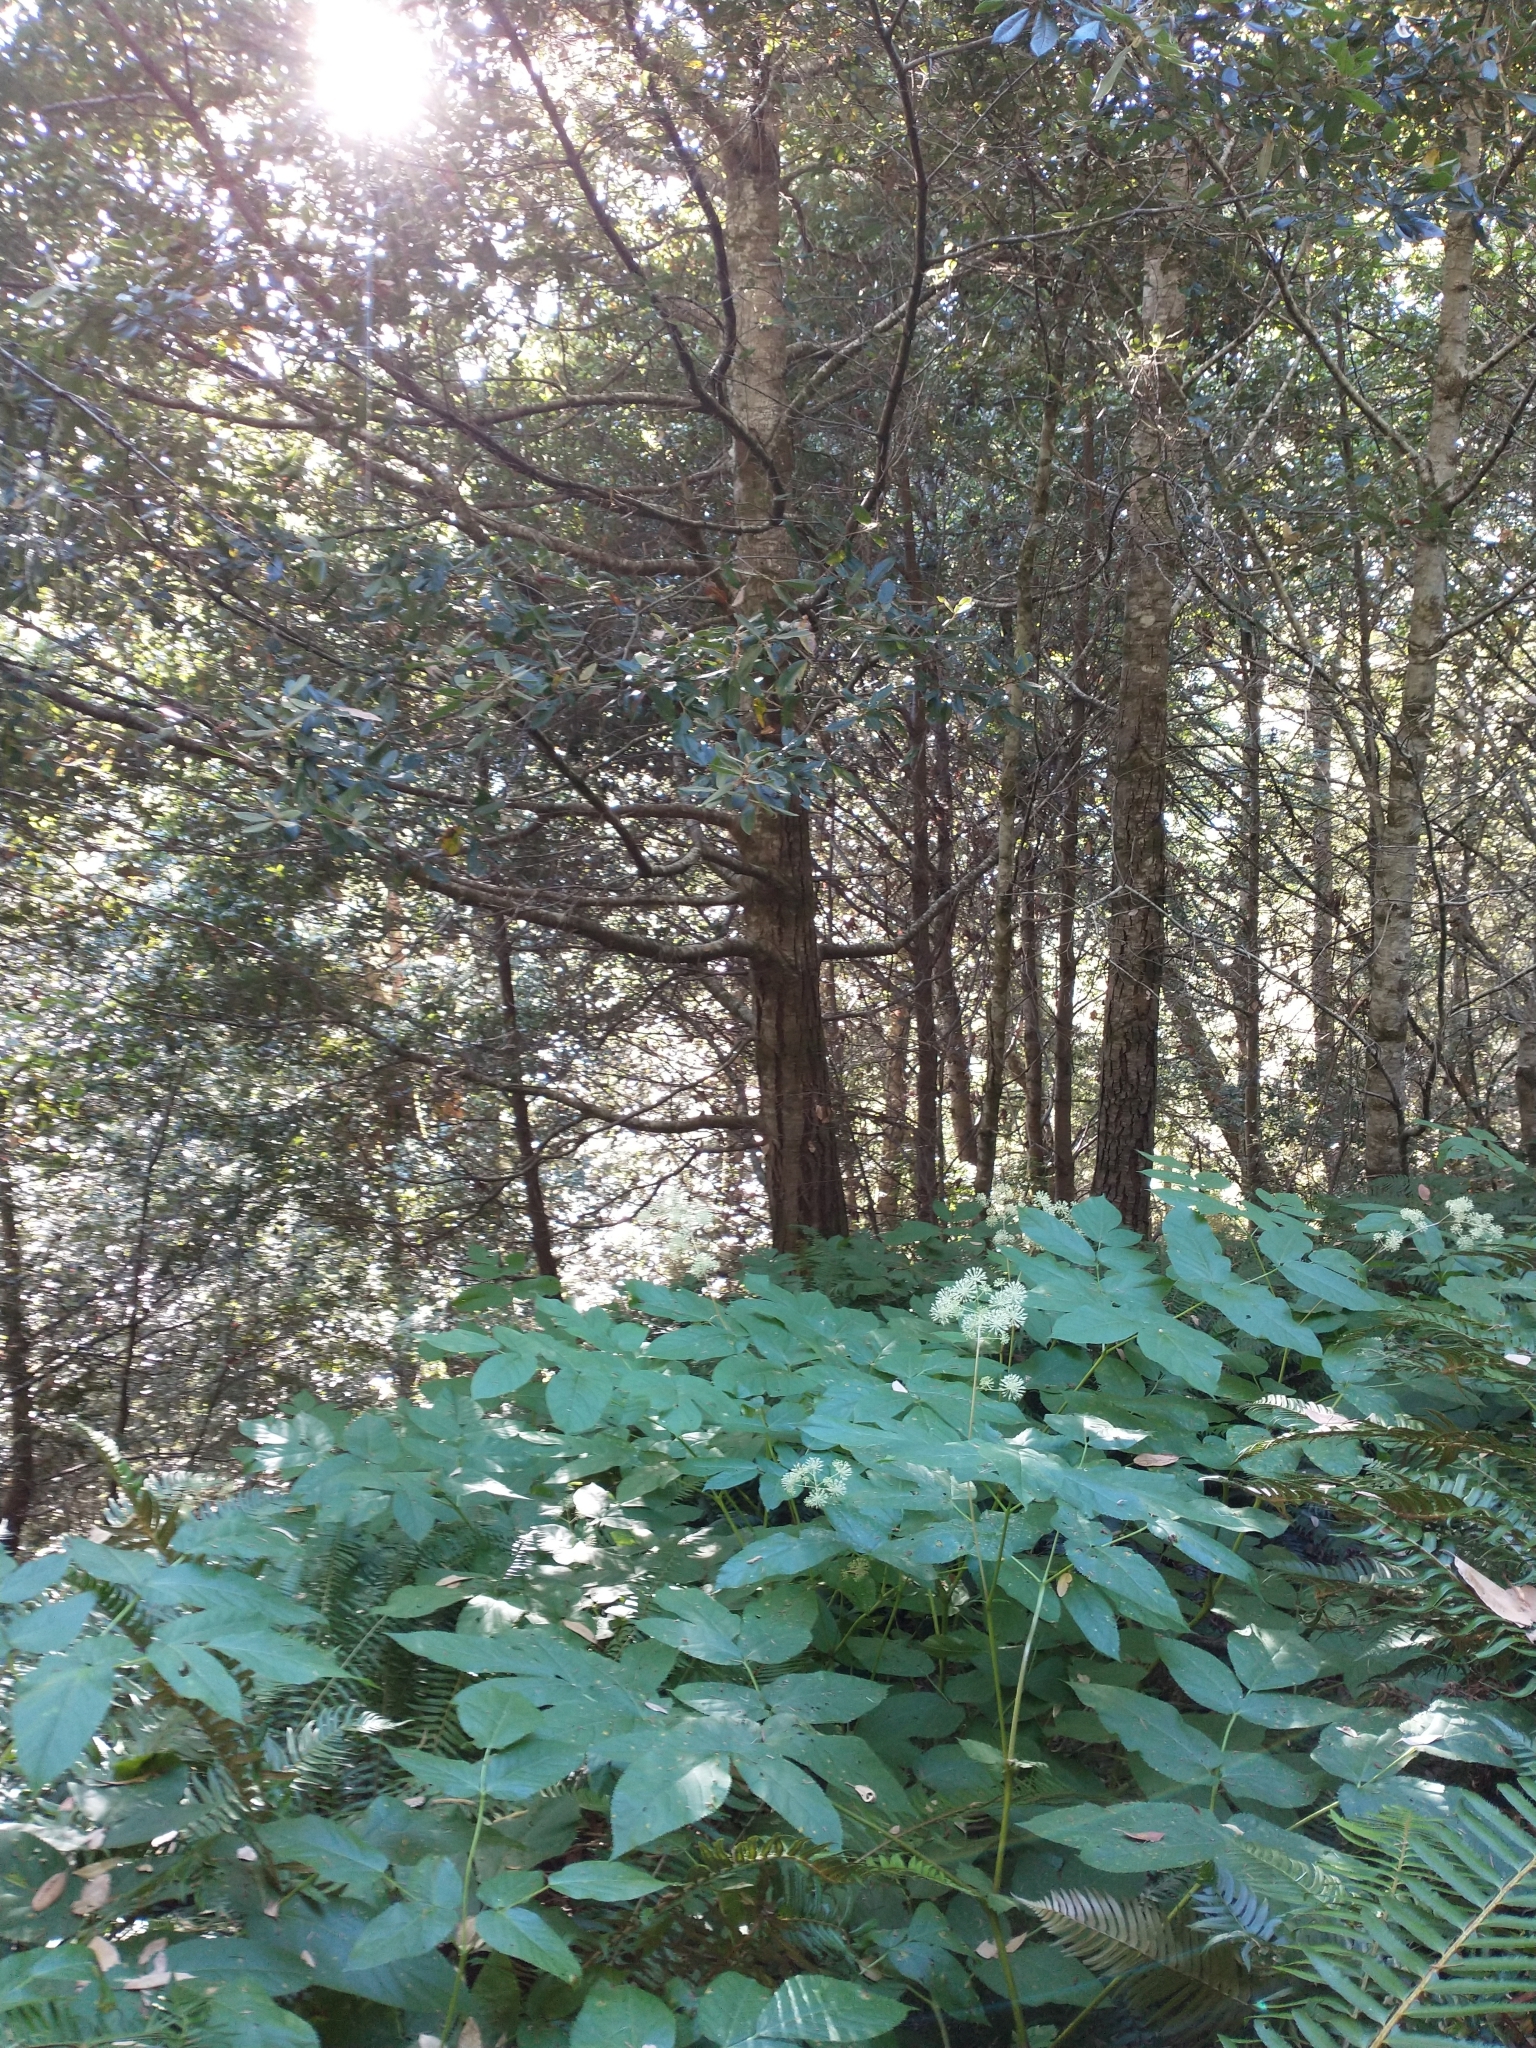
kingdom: Plantae
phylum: Tracheophyta
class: Magnoliopsida
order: Apiales
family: Araliaceae
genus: Aralia
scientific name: Aralia californica
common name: California-ginseng
